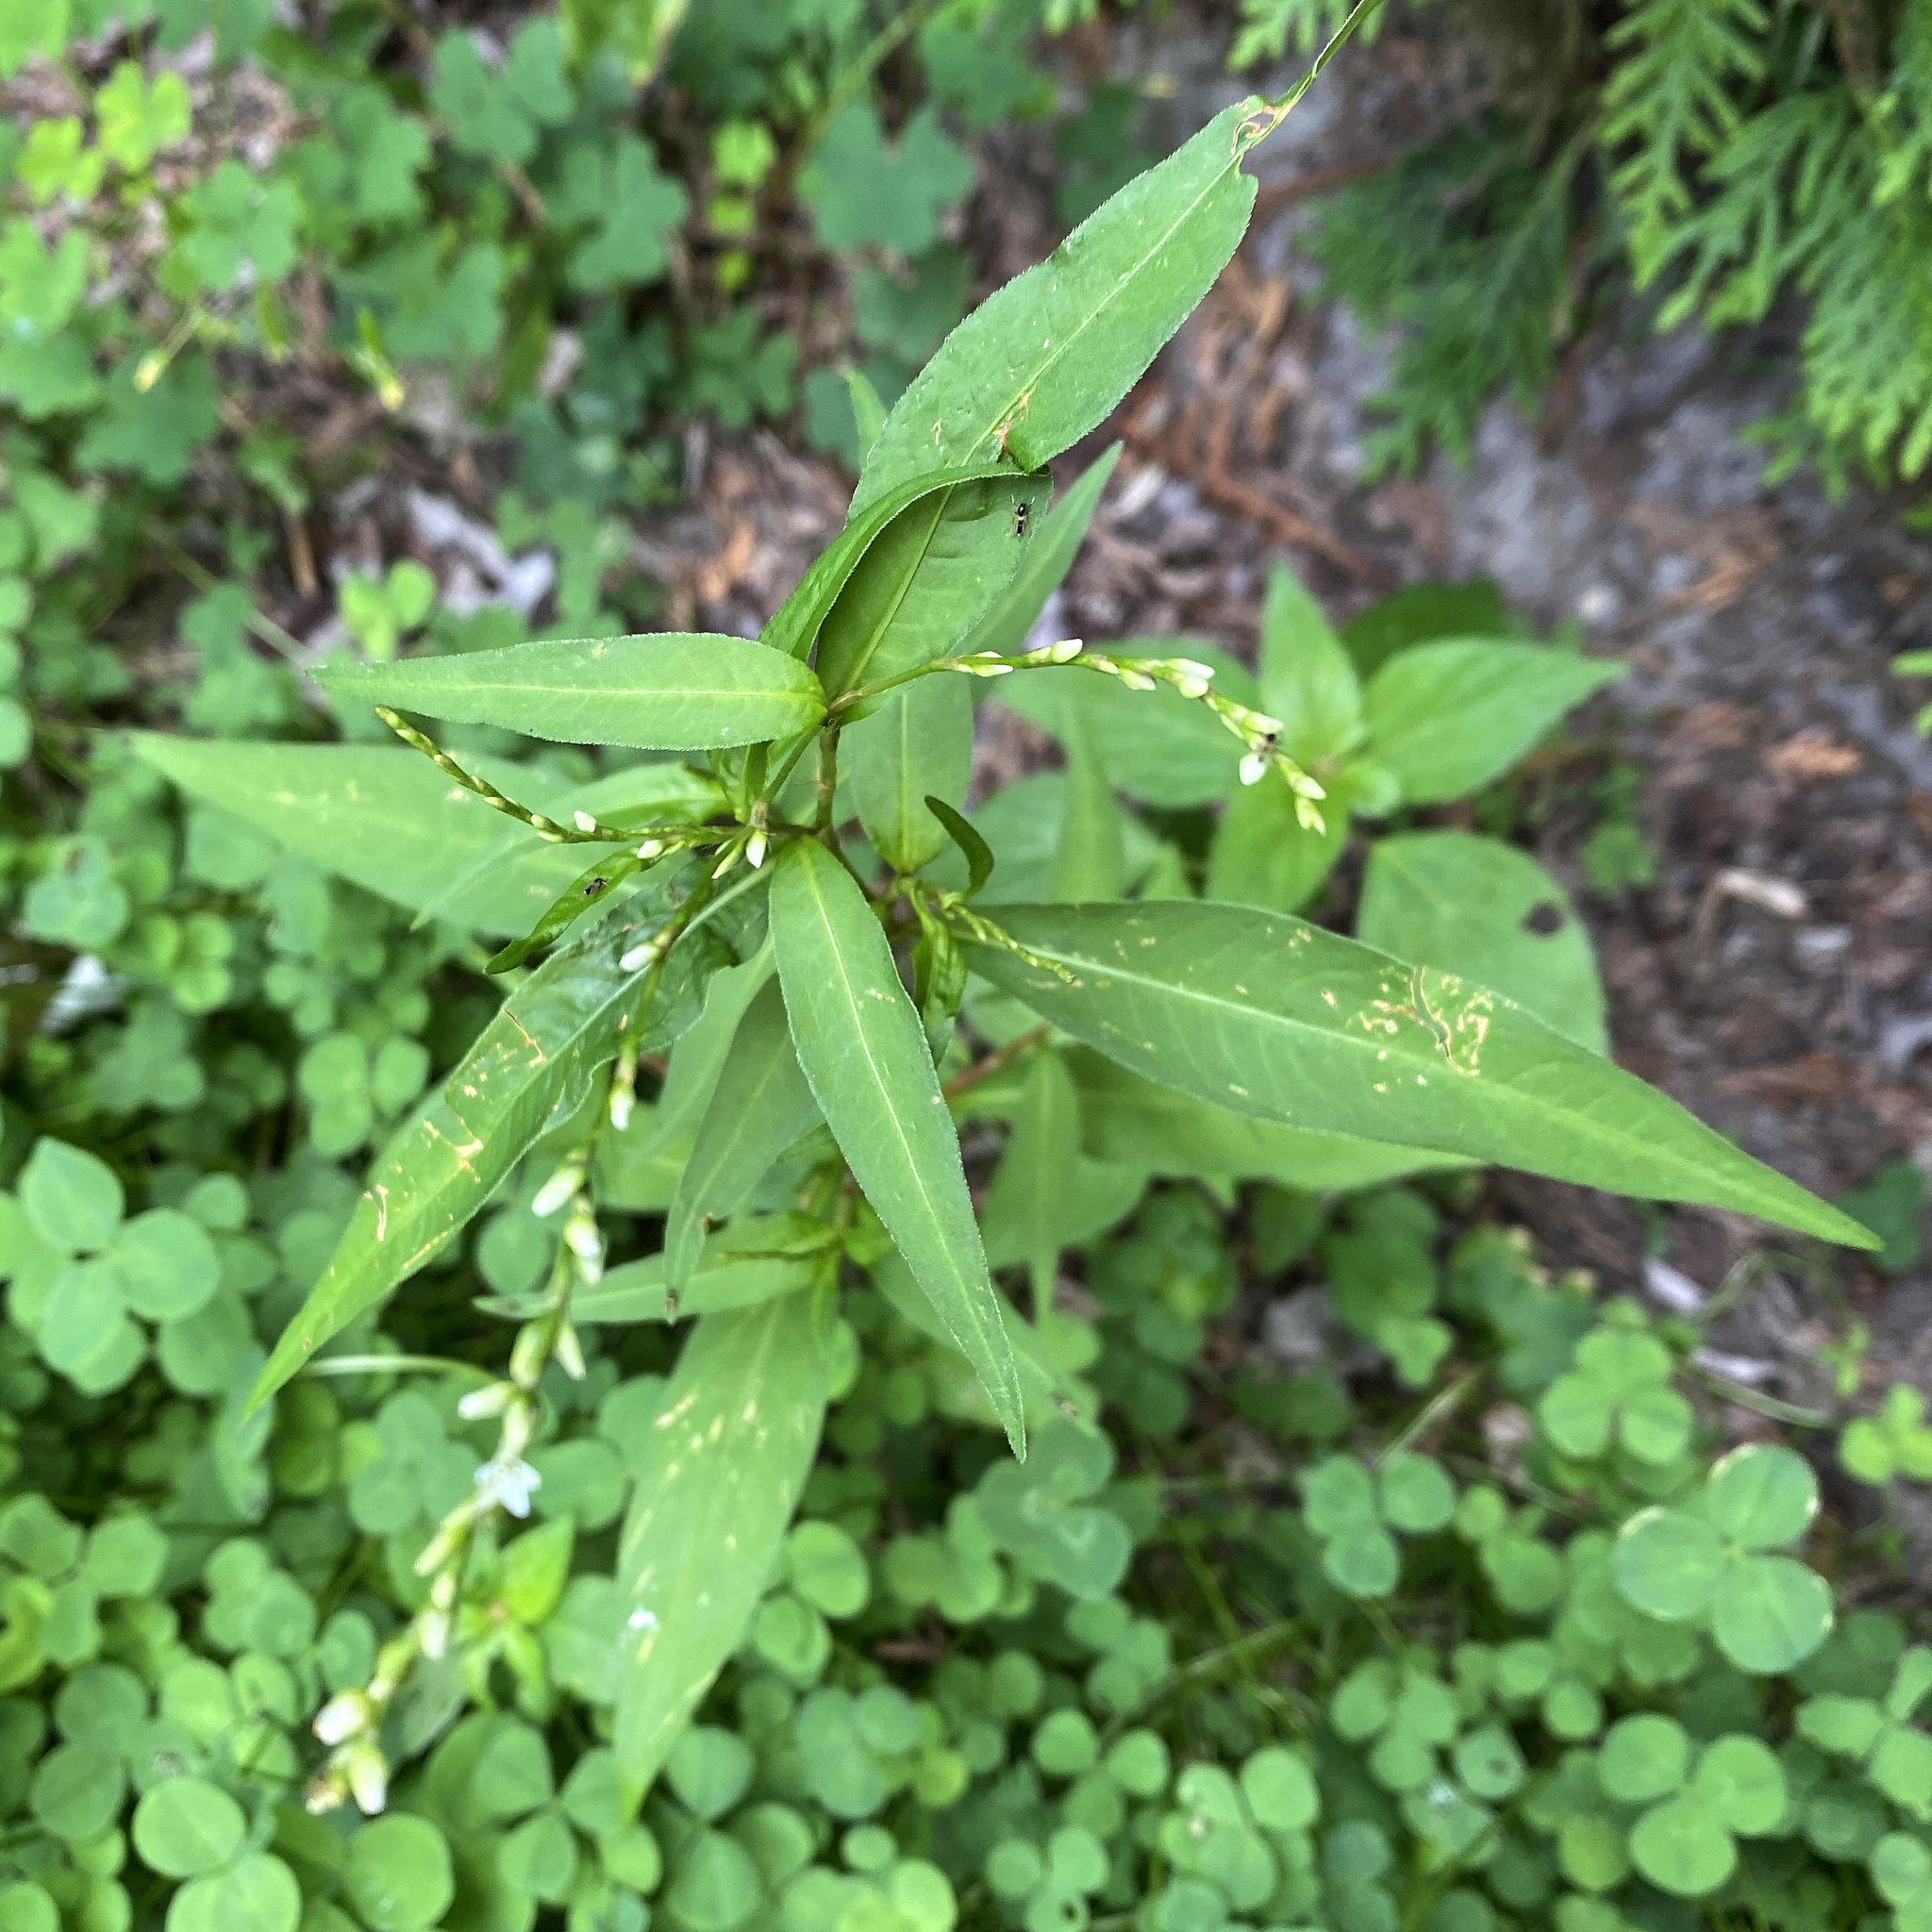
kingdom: Plantae
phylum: Tracheophyta
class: Magnoliopsida
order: Caryophyllales
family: Polygonaceae
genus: Persicaria
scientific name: Persicaria hydropiper
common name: Water-pepper
